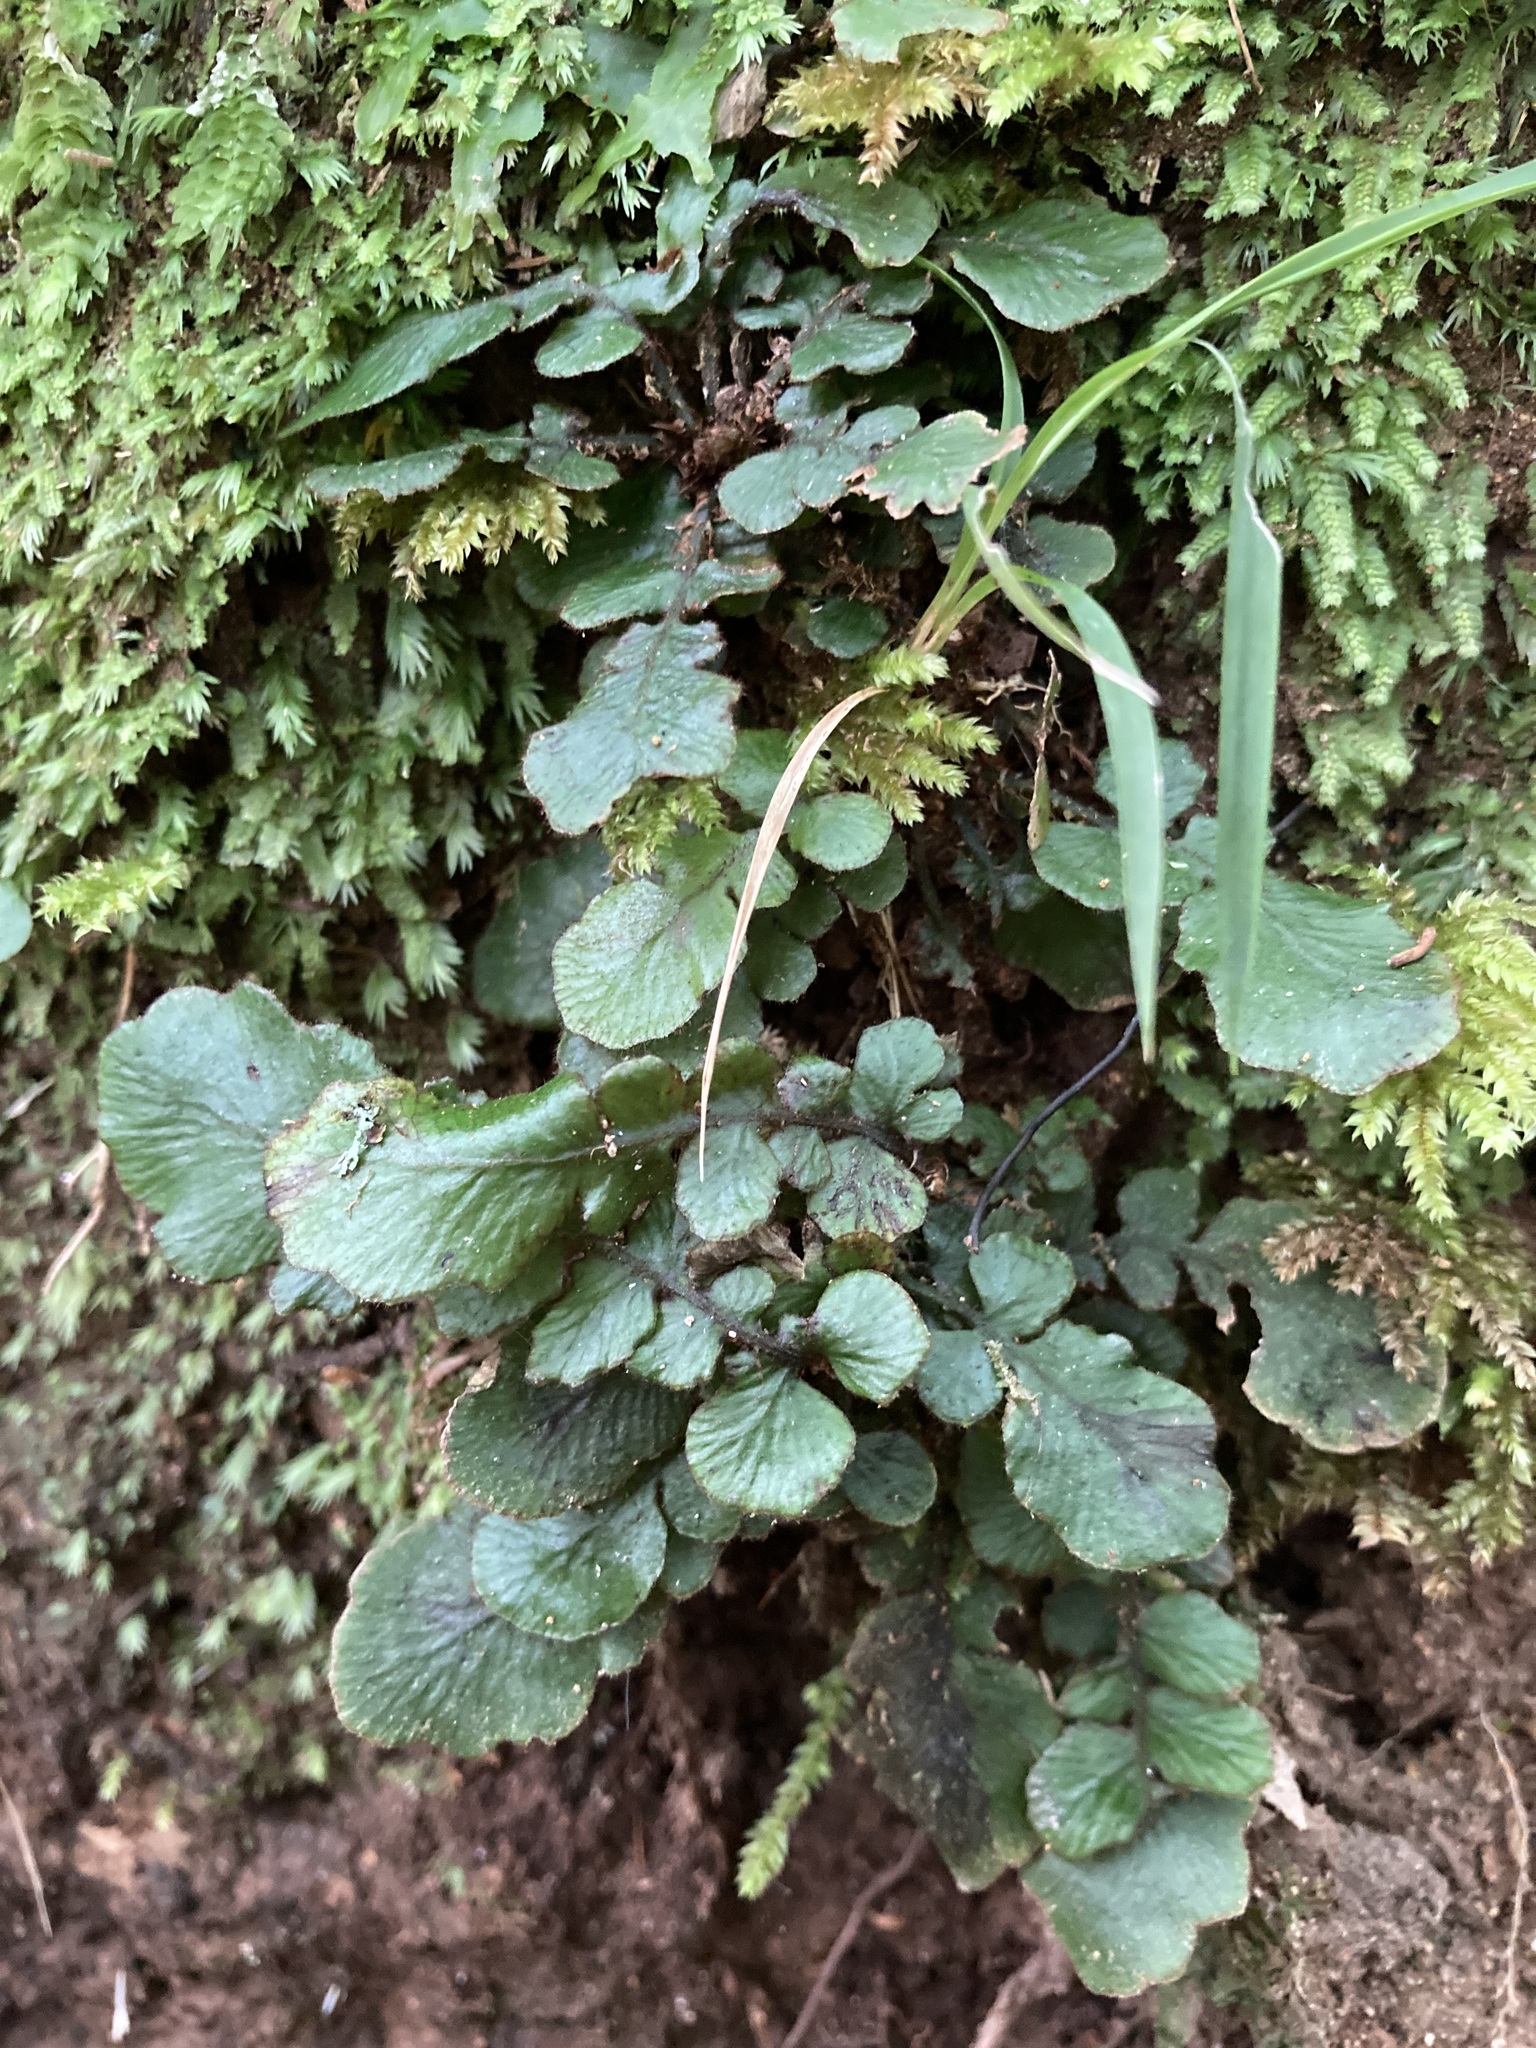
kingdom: Plantae
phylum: Tracheophyta
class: Polypodiopsida
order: Polypodiales
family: Blechnaceae
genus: Cranfillia
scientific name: Cranfillia nigra
